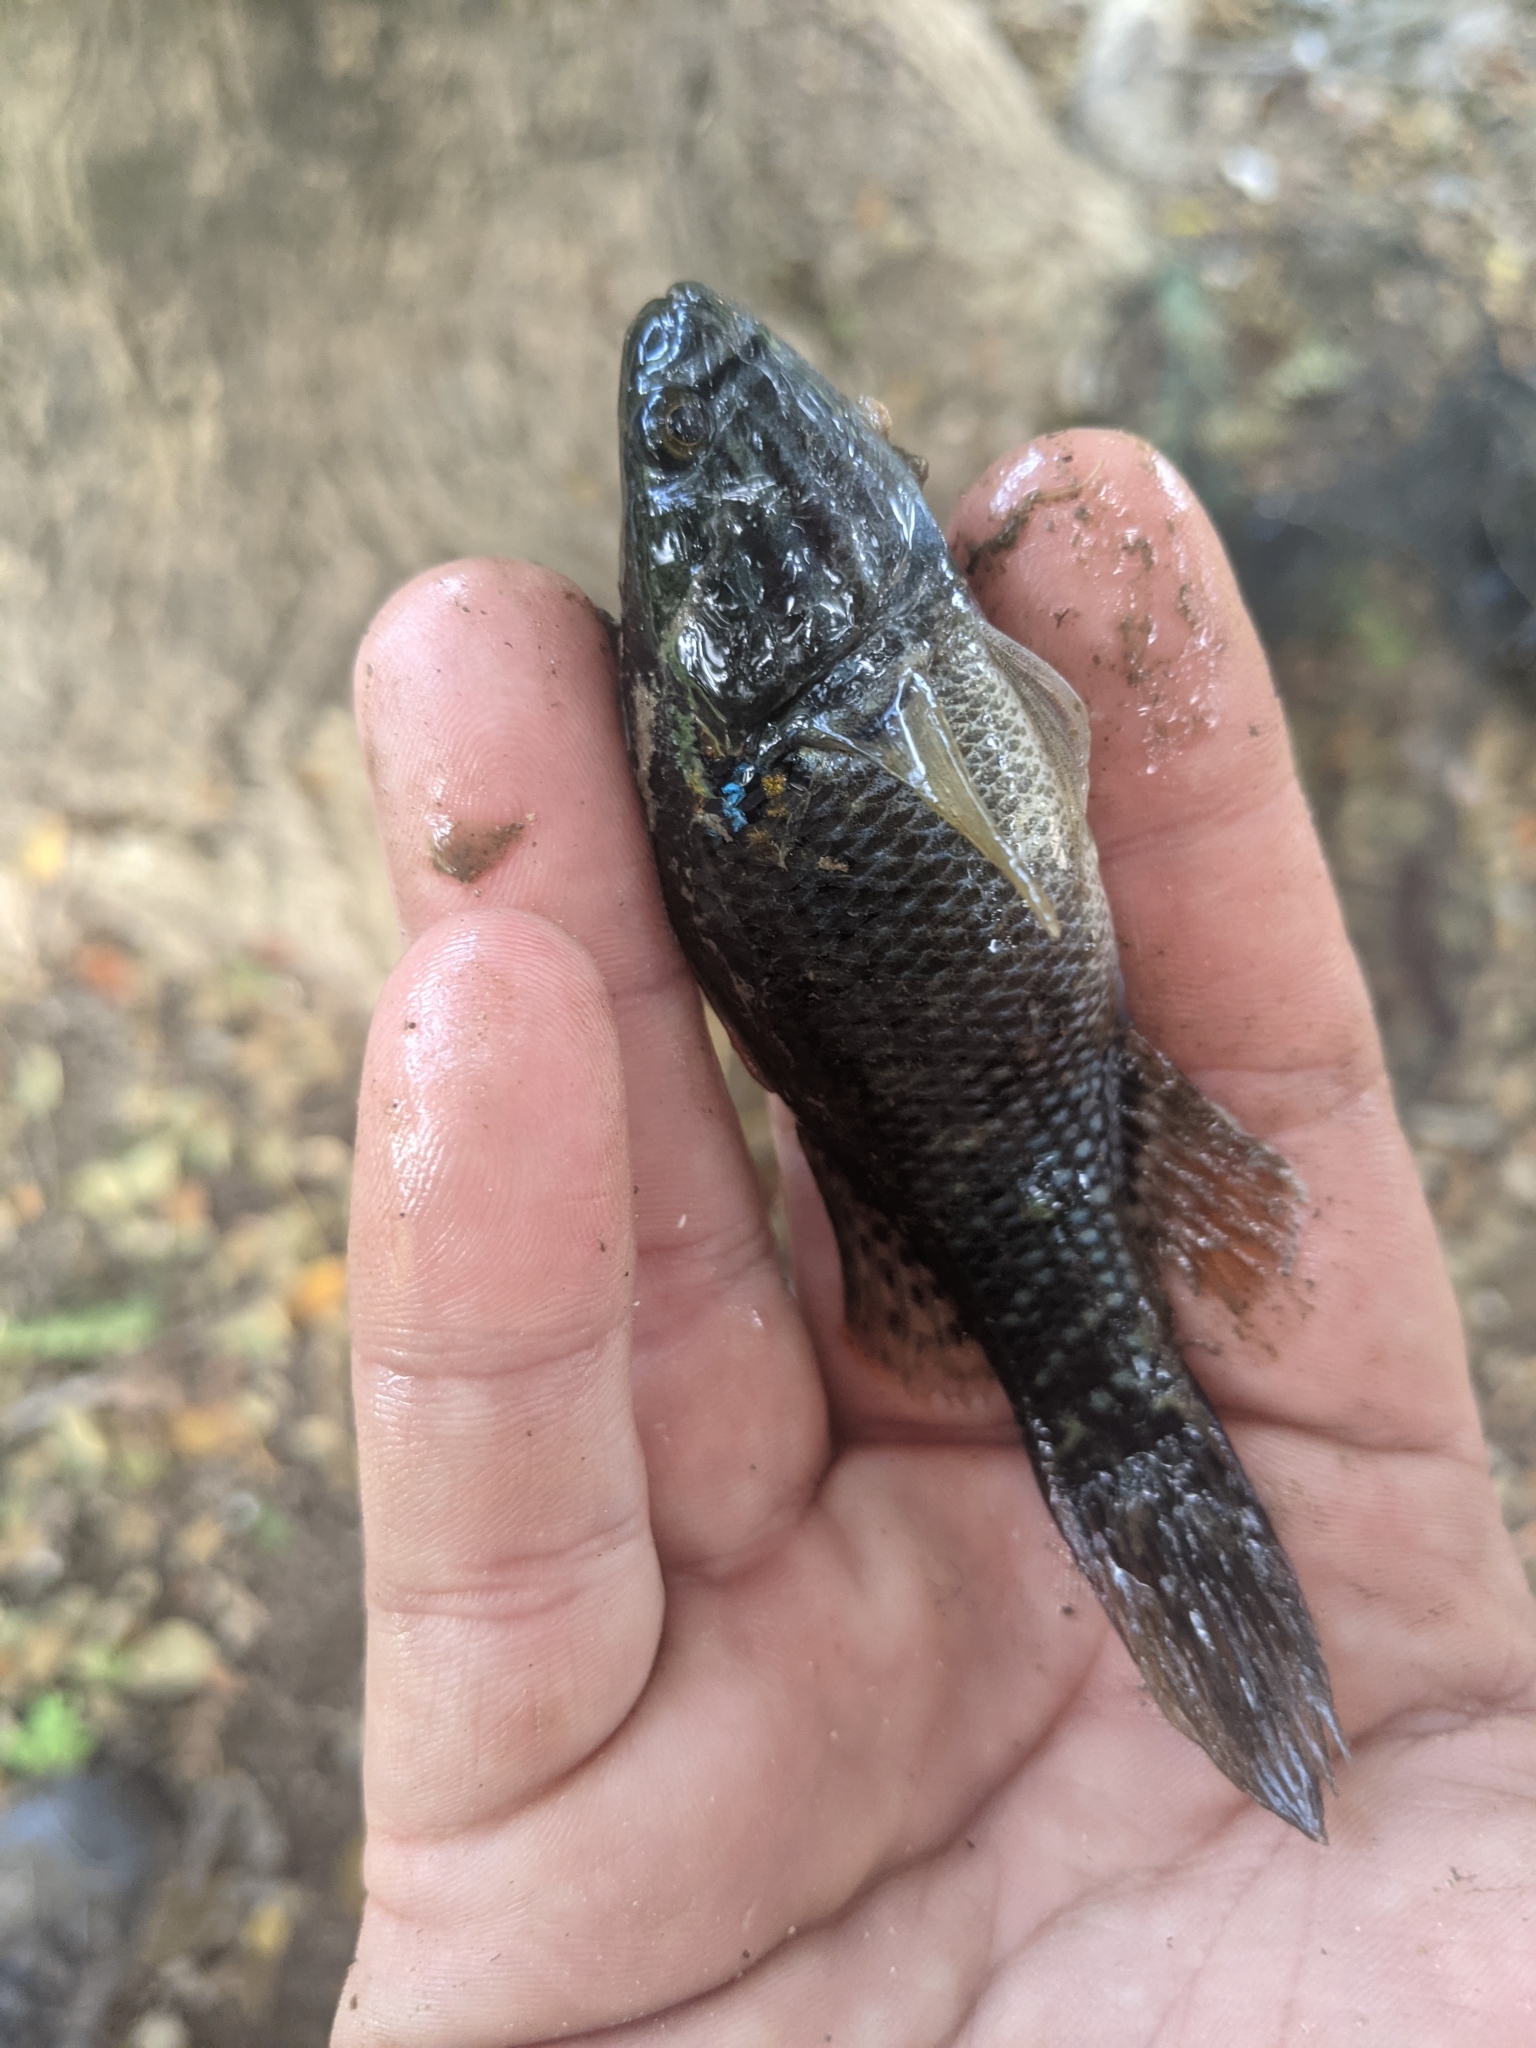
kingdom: Animalia
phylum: Chordata
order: Perciformes
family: Eleotridae
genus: Dormitator
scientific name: Dormitator latifrons
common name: Pacific fat sleeper
